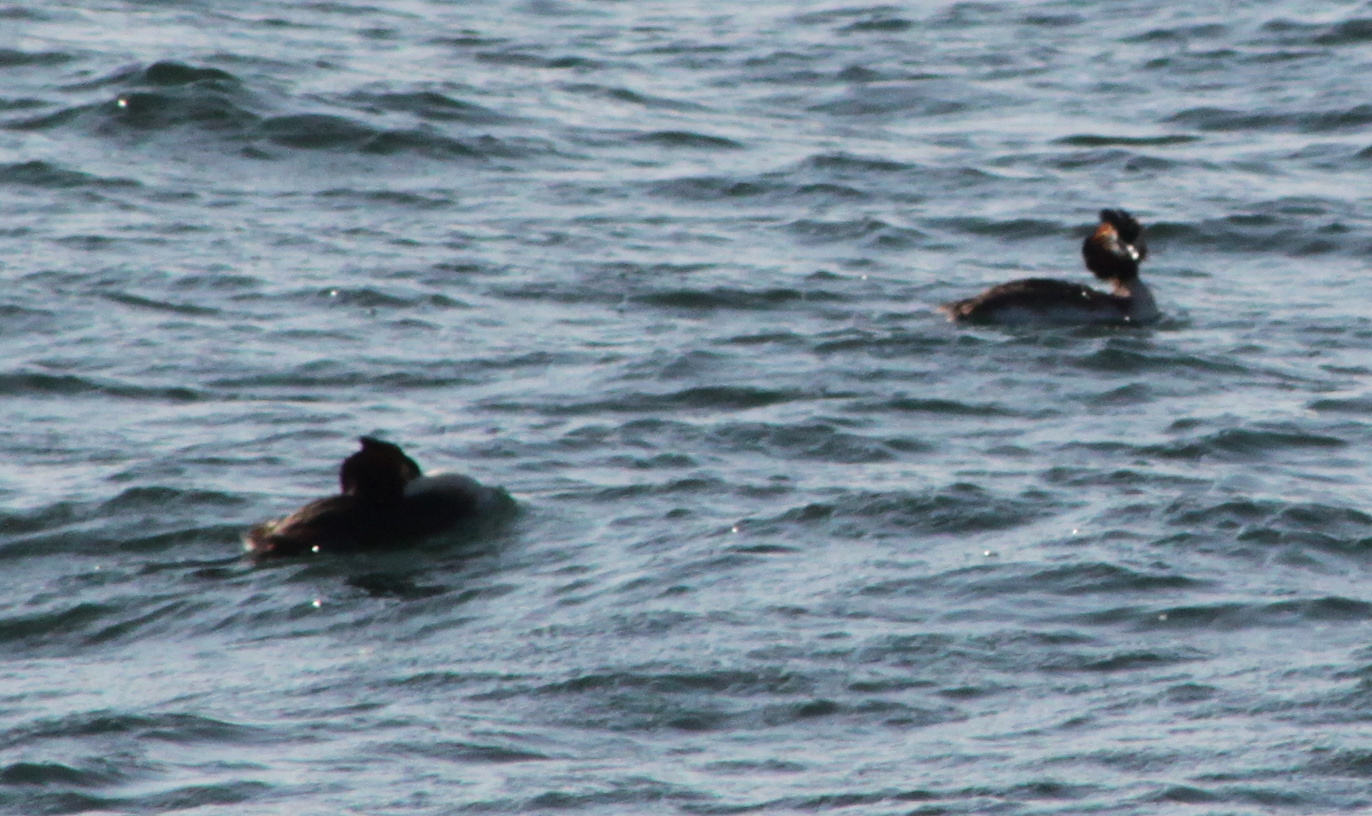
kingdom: Animalia
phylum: Chordata
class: Aves
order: Podicipediformes
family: Podicipedidae
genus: Podiceps
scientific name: Podiceps cristatus
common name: Great crested grebe
